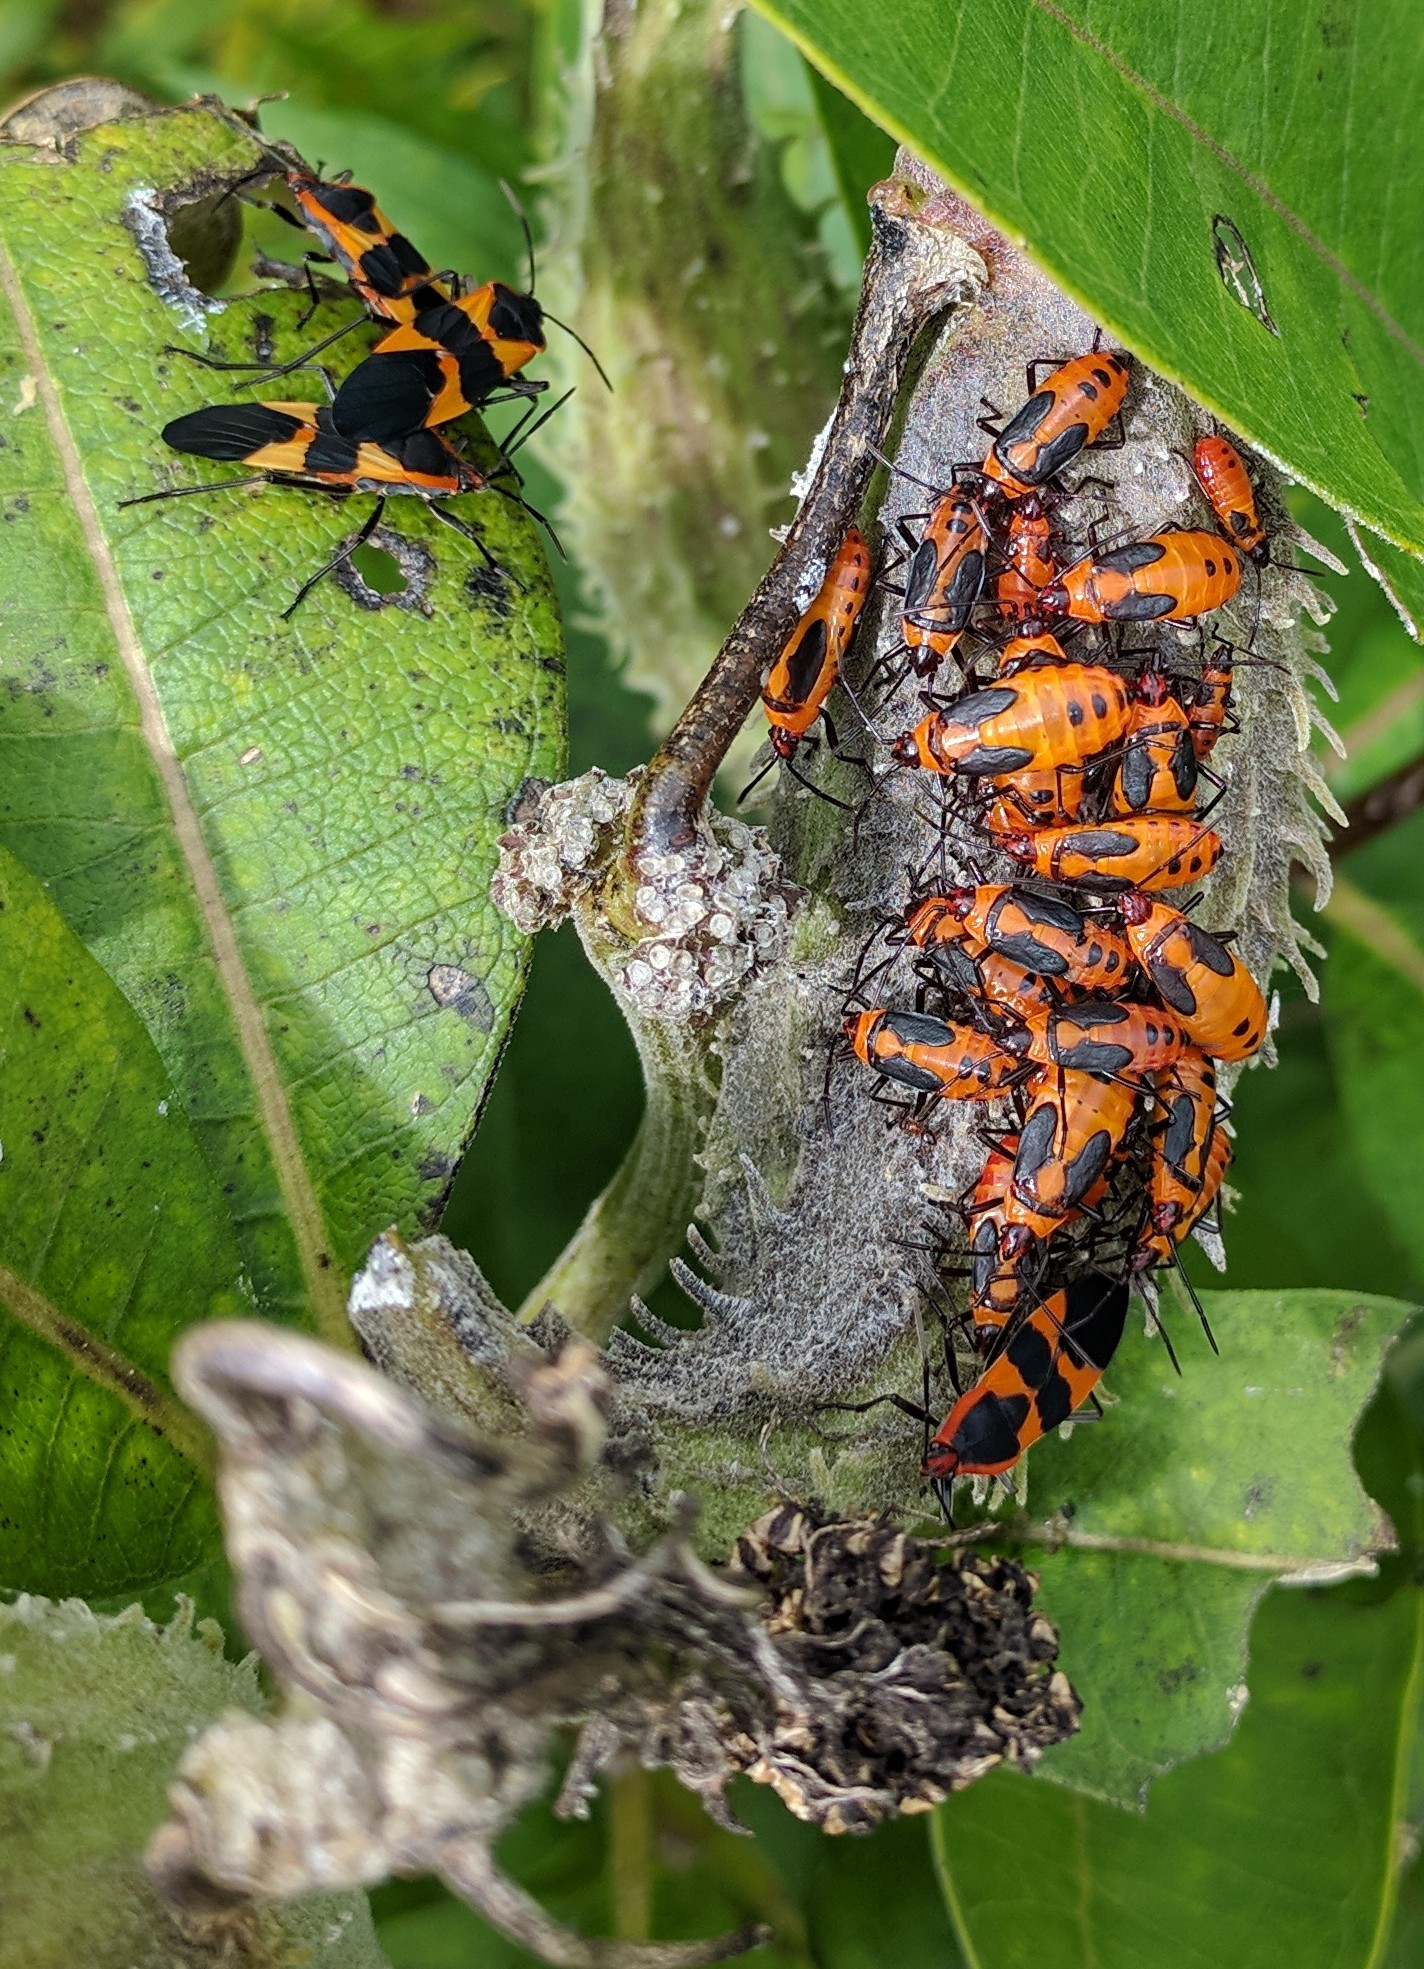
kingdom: Animalia
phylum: Arthropoda
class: Insecta
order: Hemiptera
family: Lygaeidae
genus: Oncopeltus
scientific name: Oncopeltus fasciatus
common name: Large milkweed bug
